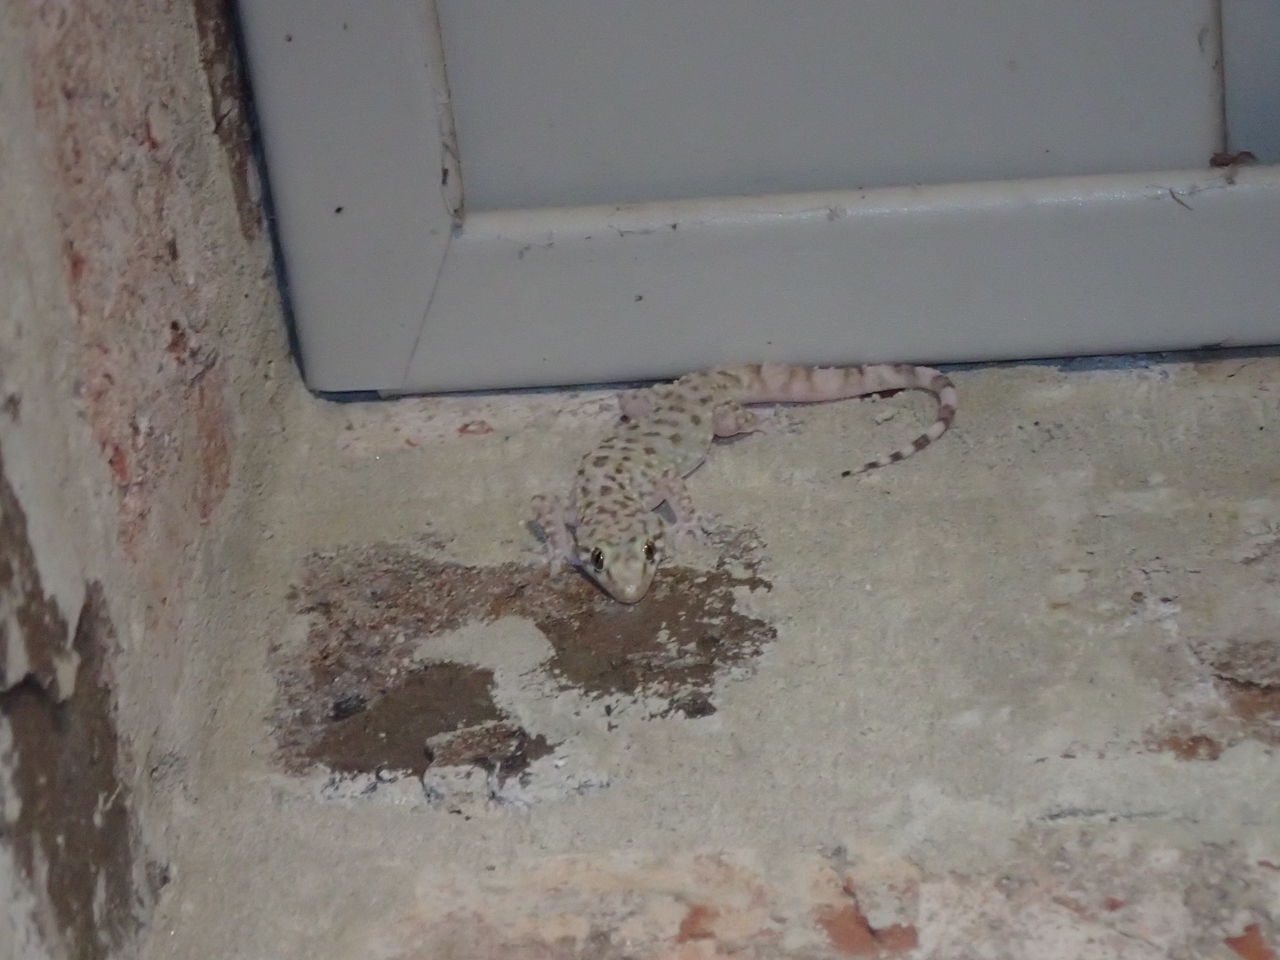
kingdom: Animalia
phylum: Chordata
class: Squamata
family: Gekkonidae
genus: Hemidactylus
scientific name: Hemidactylus turcicus
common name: Turkish gecko
